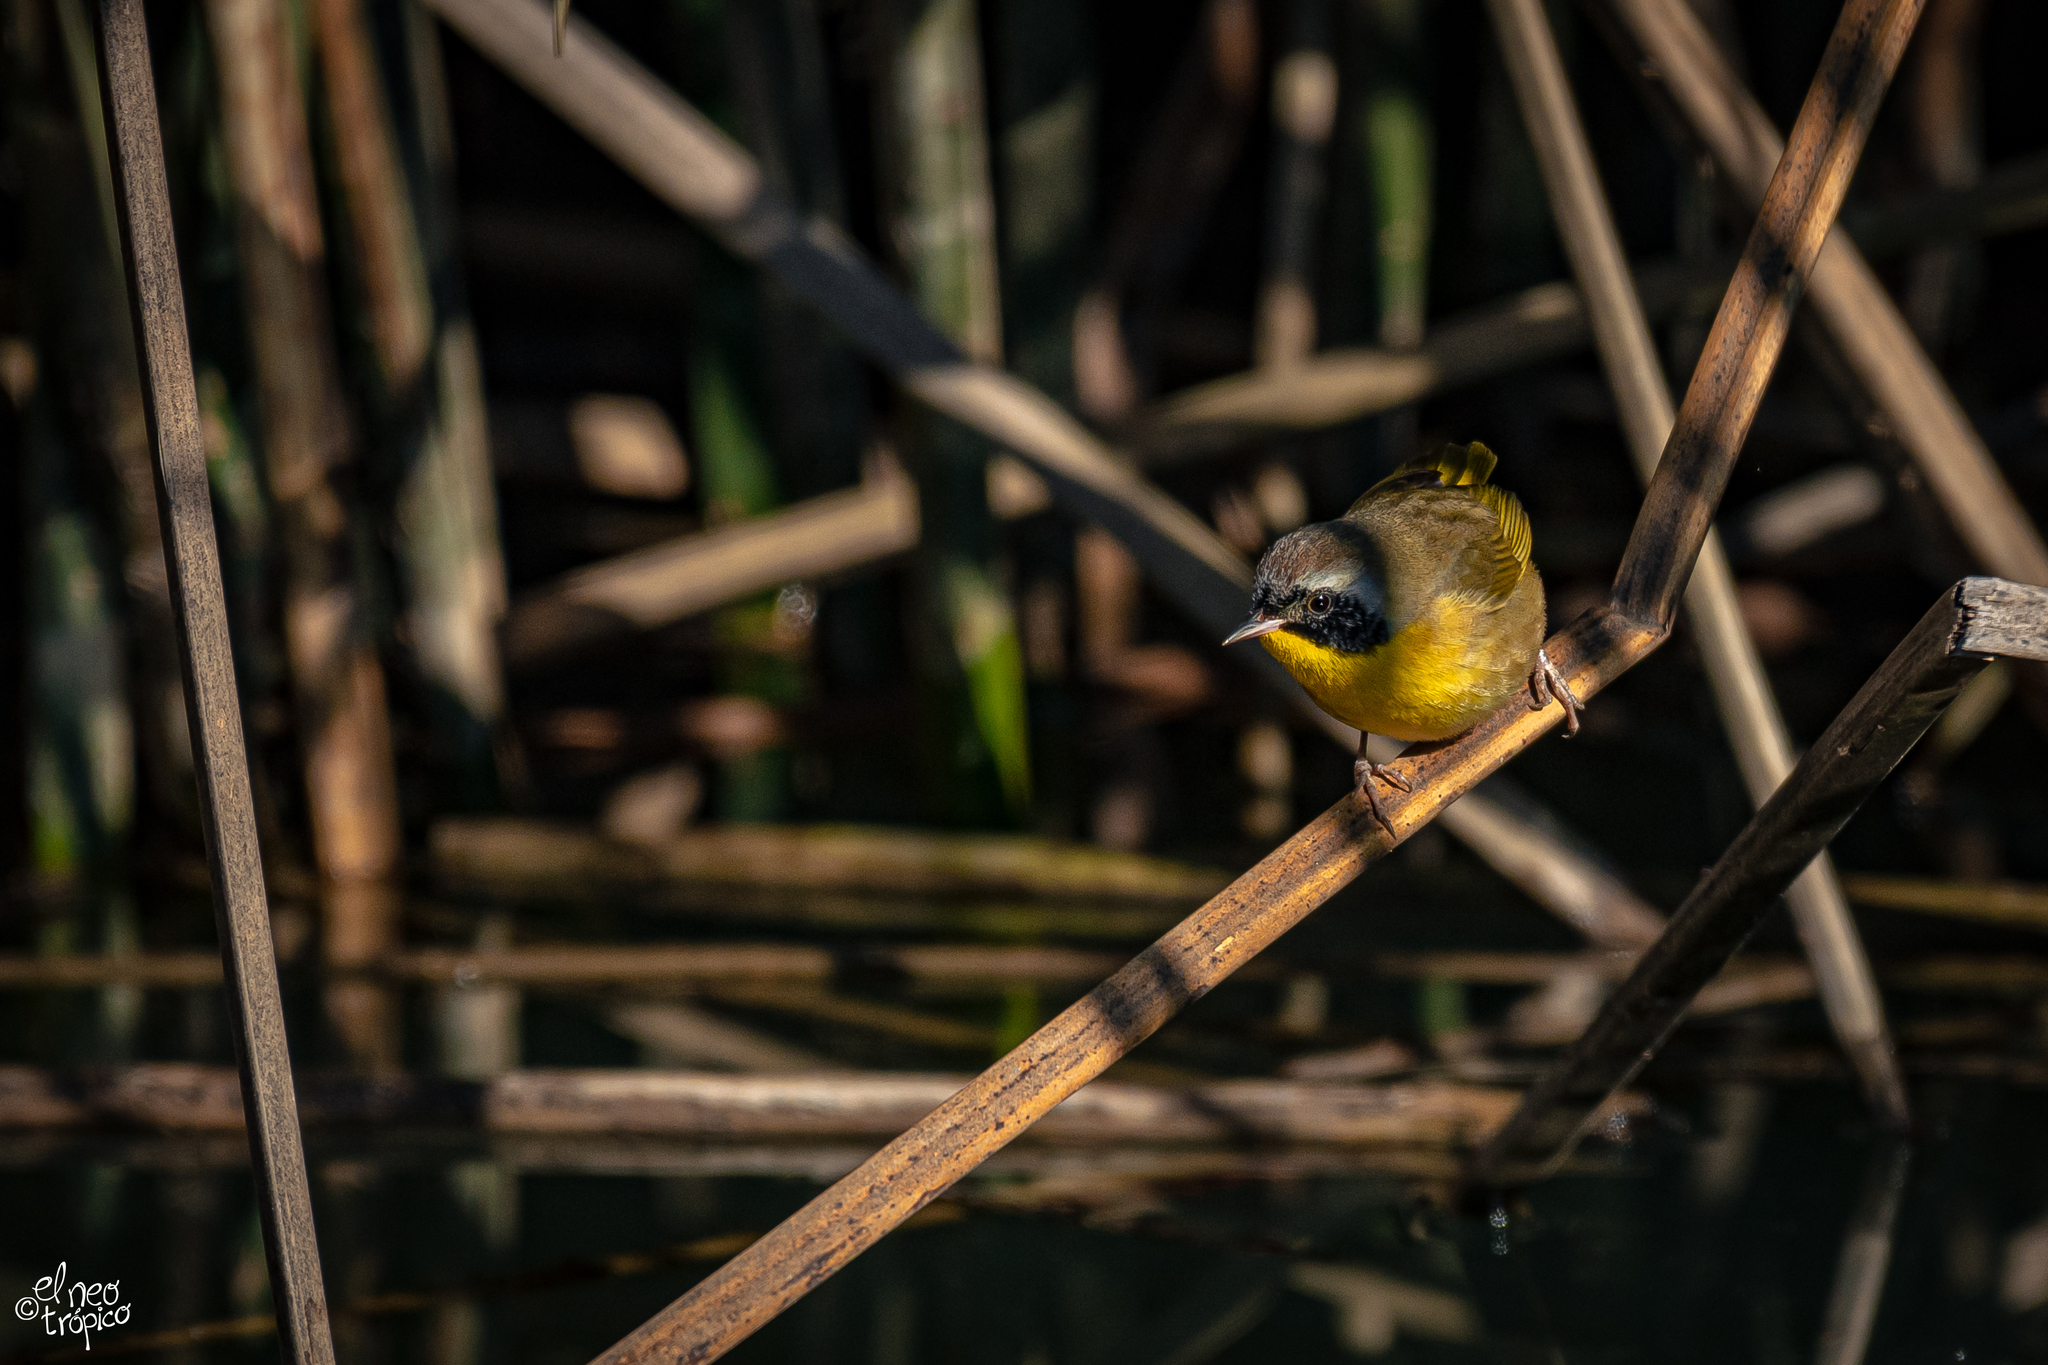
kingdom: Animalia
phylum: Chordata
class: Aves
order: Passeriformes
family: Parulidae
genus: Geothlypis
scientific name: Geothlypis trichas
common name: Common yellowthroat
